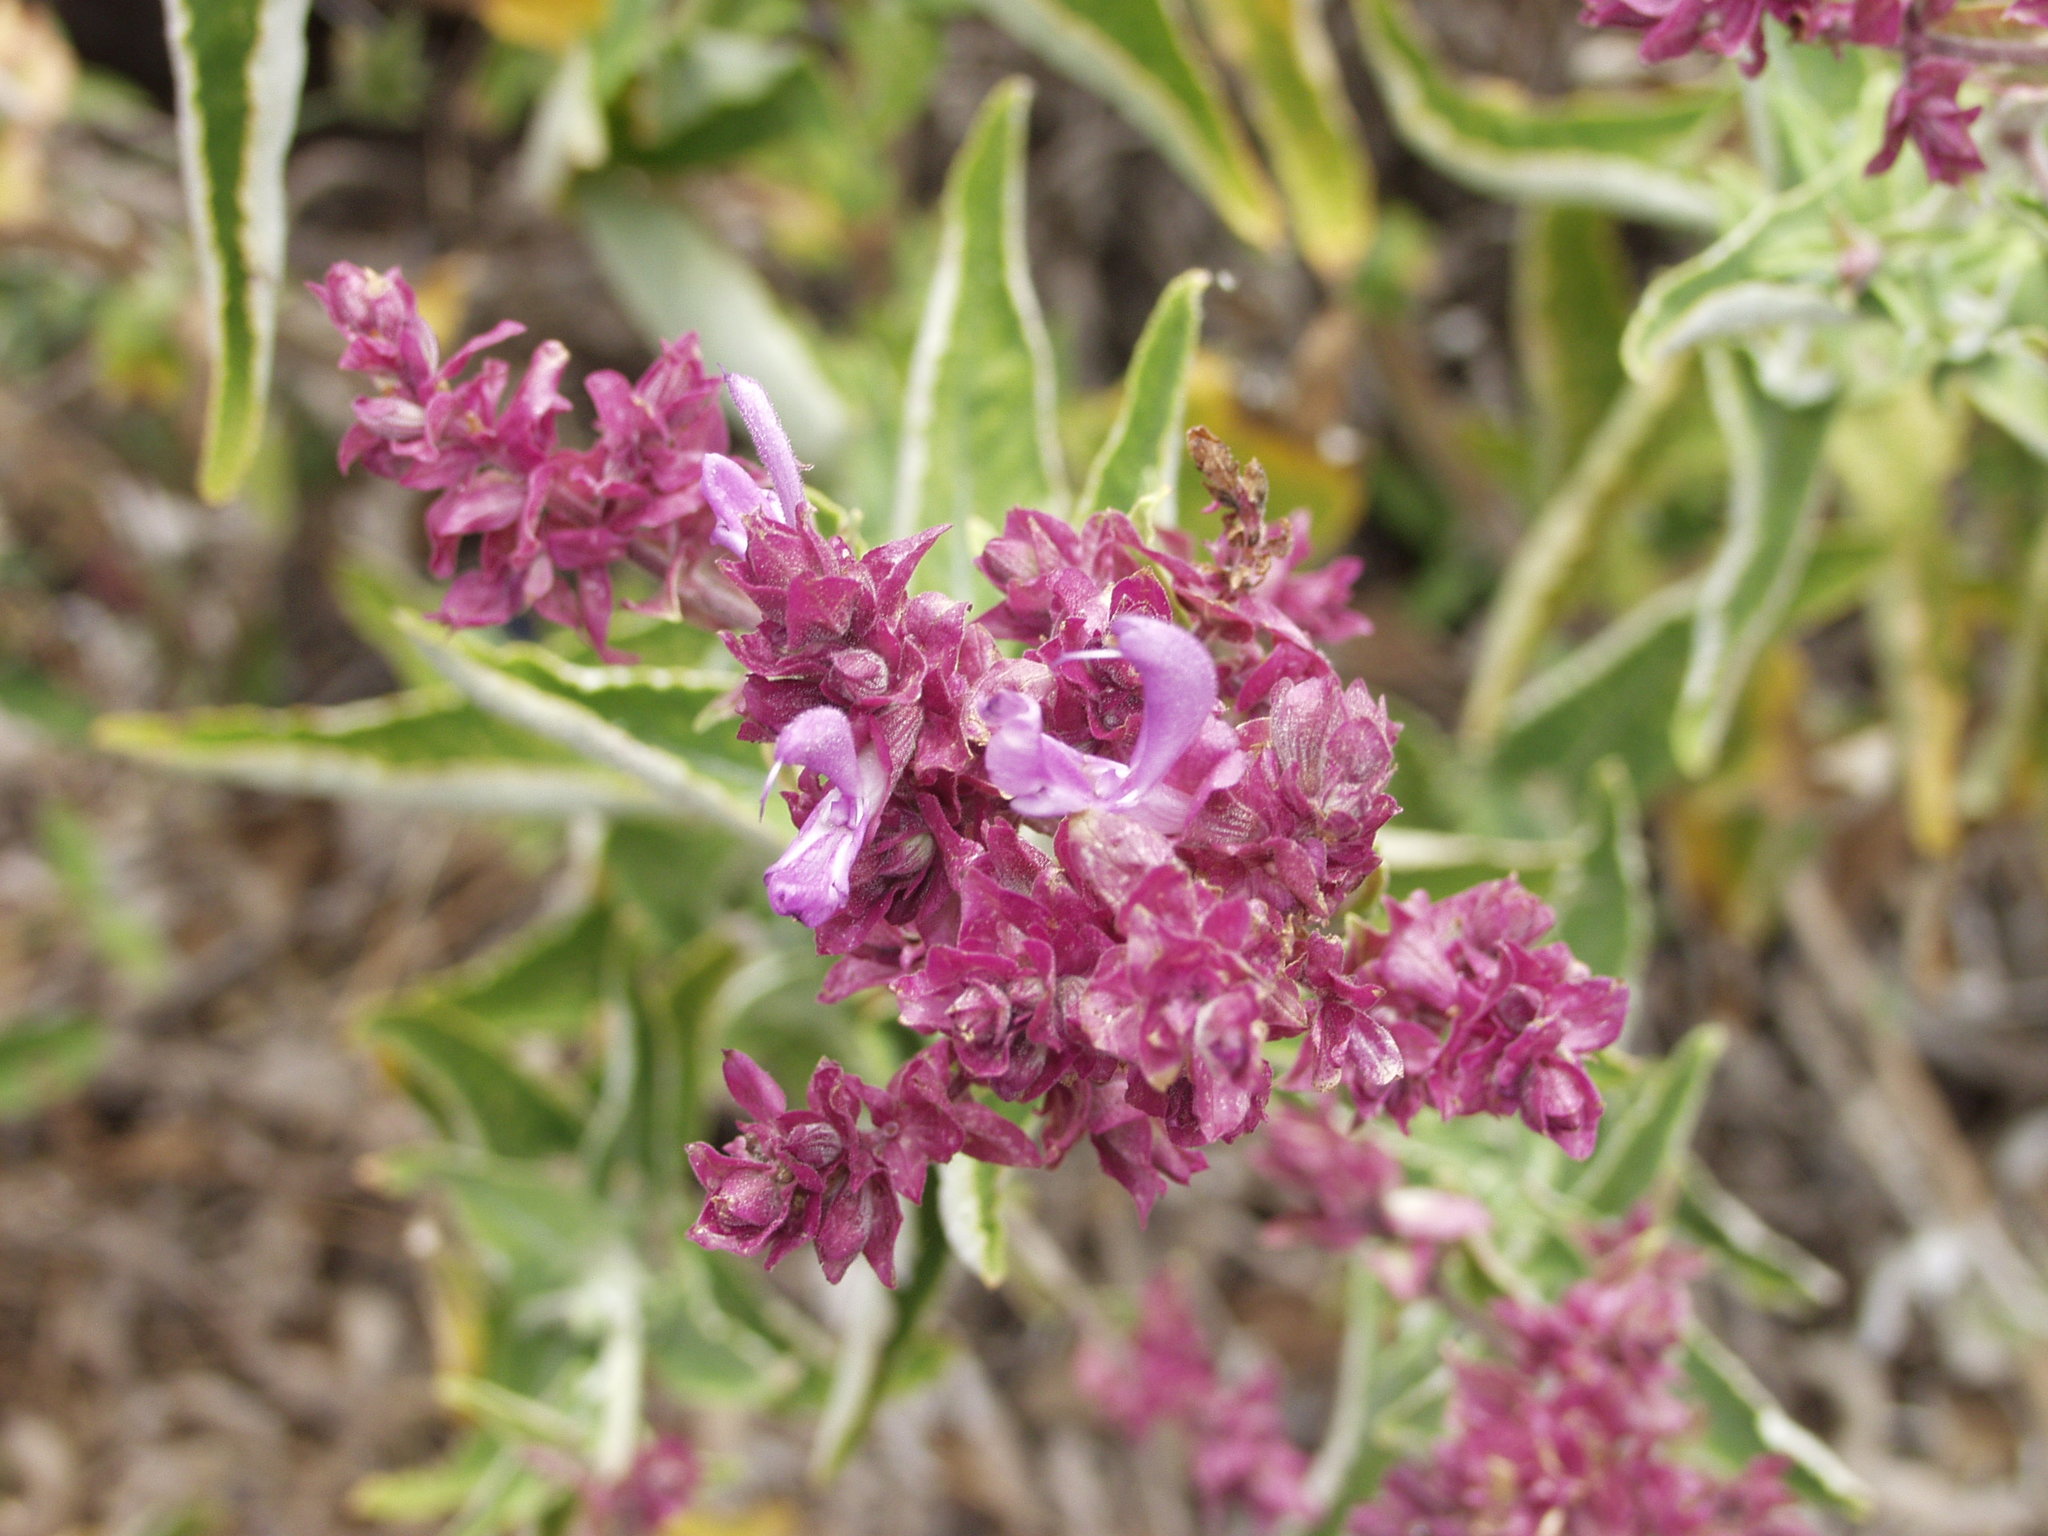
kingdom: Plantae
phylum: Tracheophyta
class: Magnoliopsida
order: Lamiales
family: Lamiaceae
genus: Salvia
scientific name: Salvia canariensis
